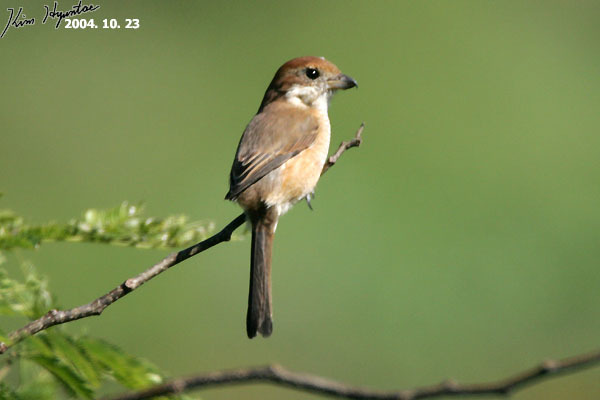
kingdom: Animalia
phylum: Chordata
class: Aves
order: Passeriformes
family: Laniidae
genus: Lanius
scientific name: Lanius bucephalus
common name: Bull-headed shrike
